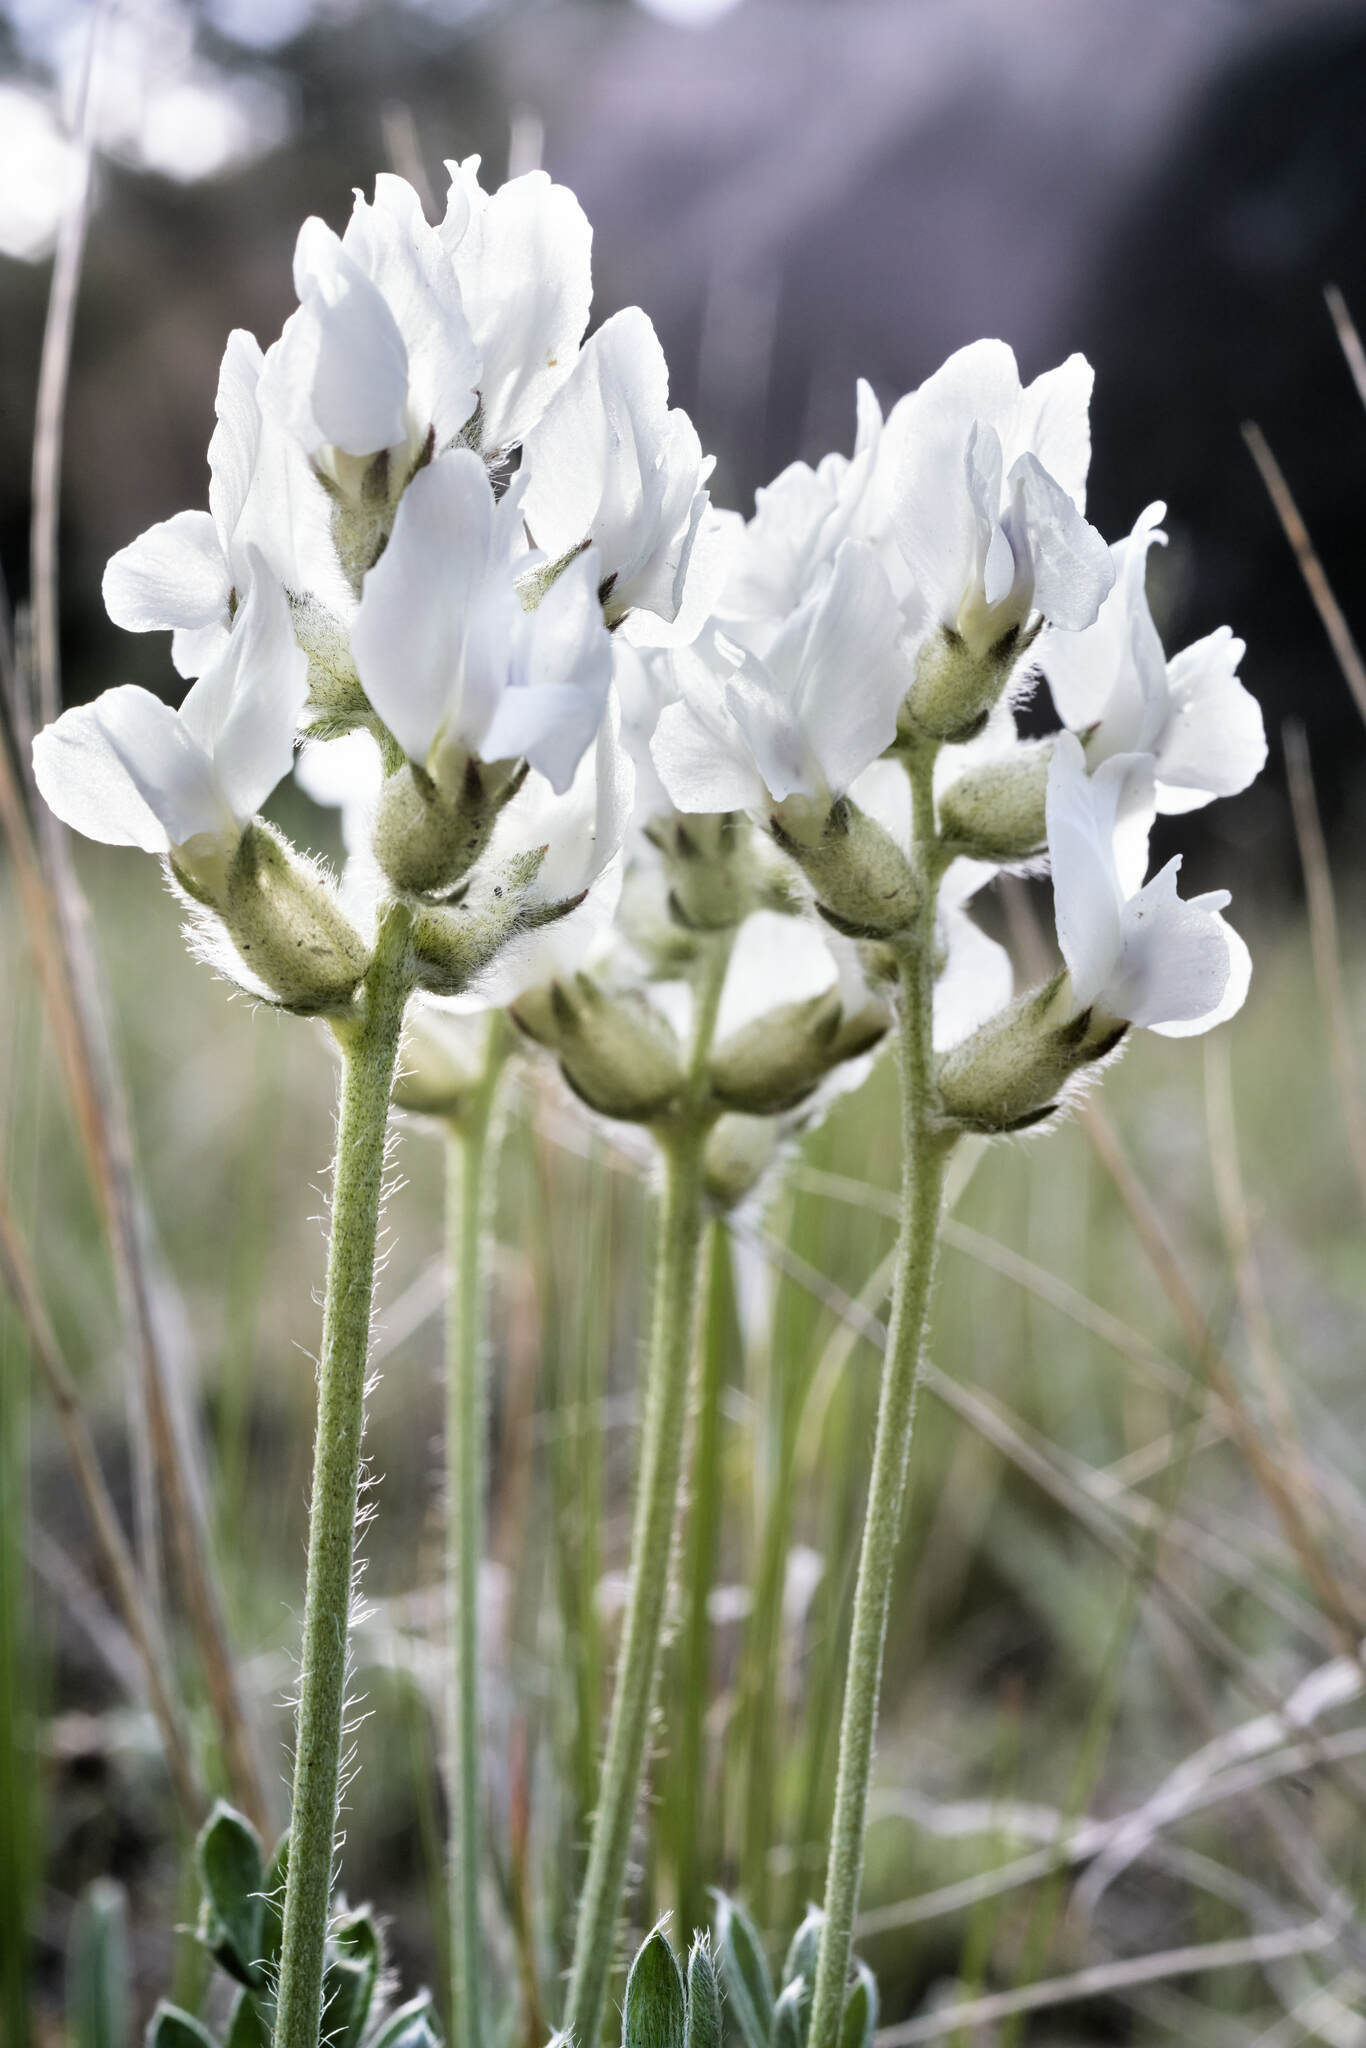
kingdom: Plantae
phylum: Tracheophyta
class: Magnoliopsida
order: Fabales
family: Fabaceae
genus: Oxytropis
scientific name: Oxytropis sericea
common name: Silky locoweed
